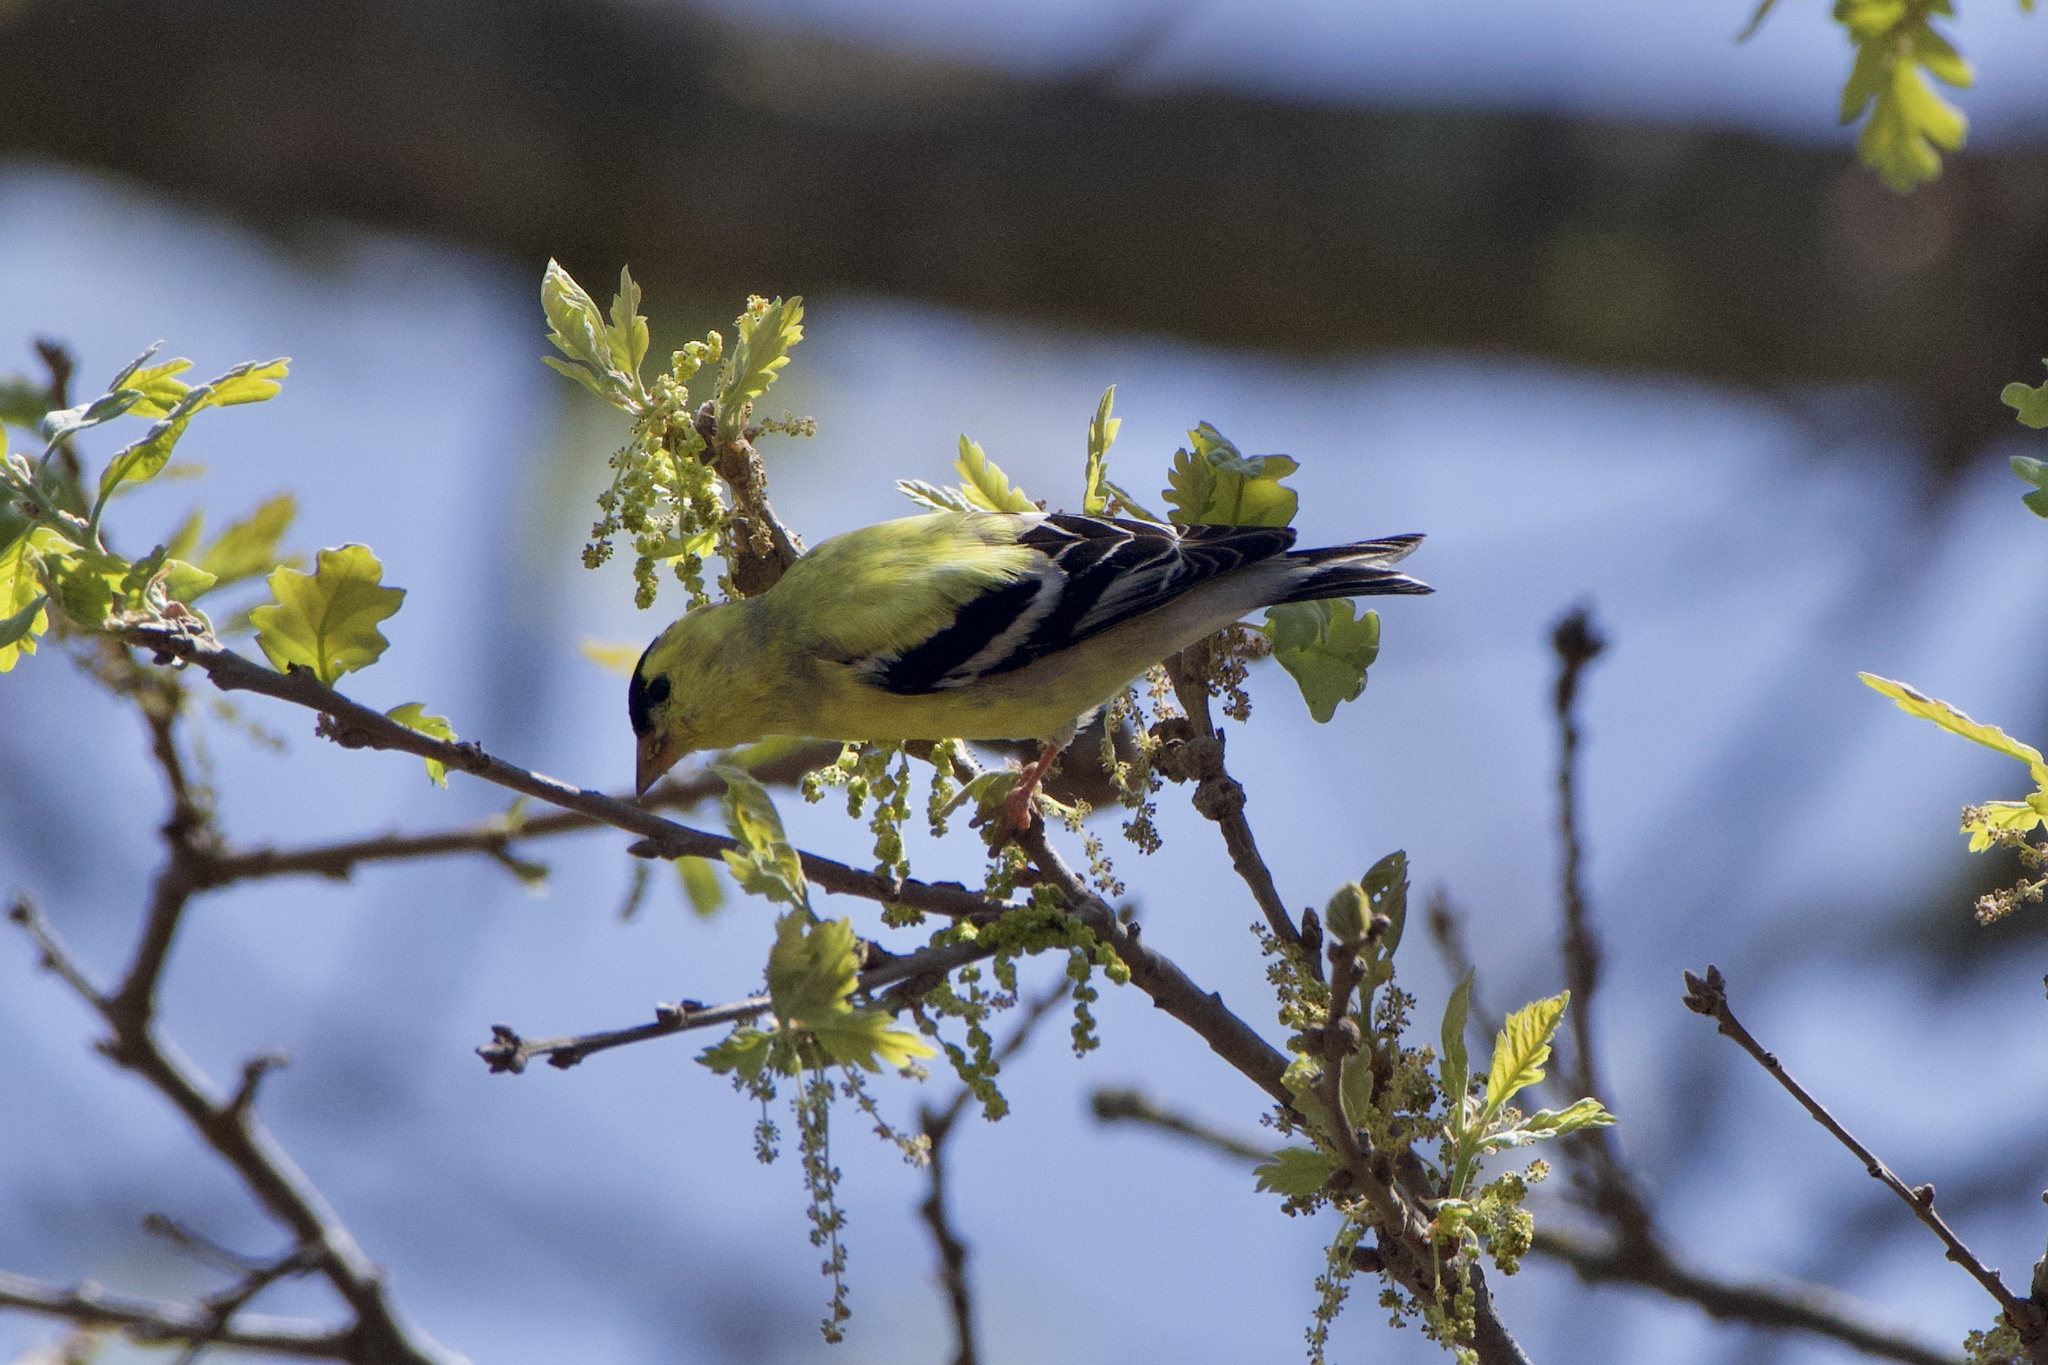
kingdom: Animalia
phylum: Chordata
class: Aves
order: Passeriformes
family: Fringillidae
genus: Spinus
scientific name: Spinus tristis
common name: American goldfinch
